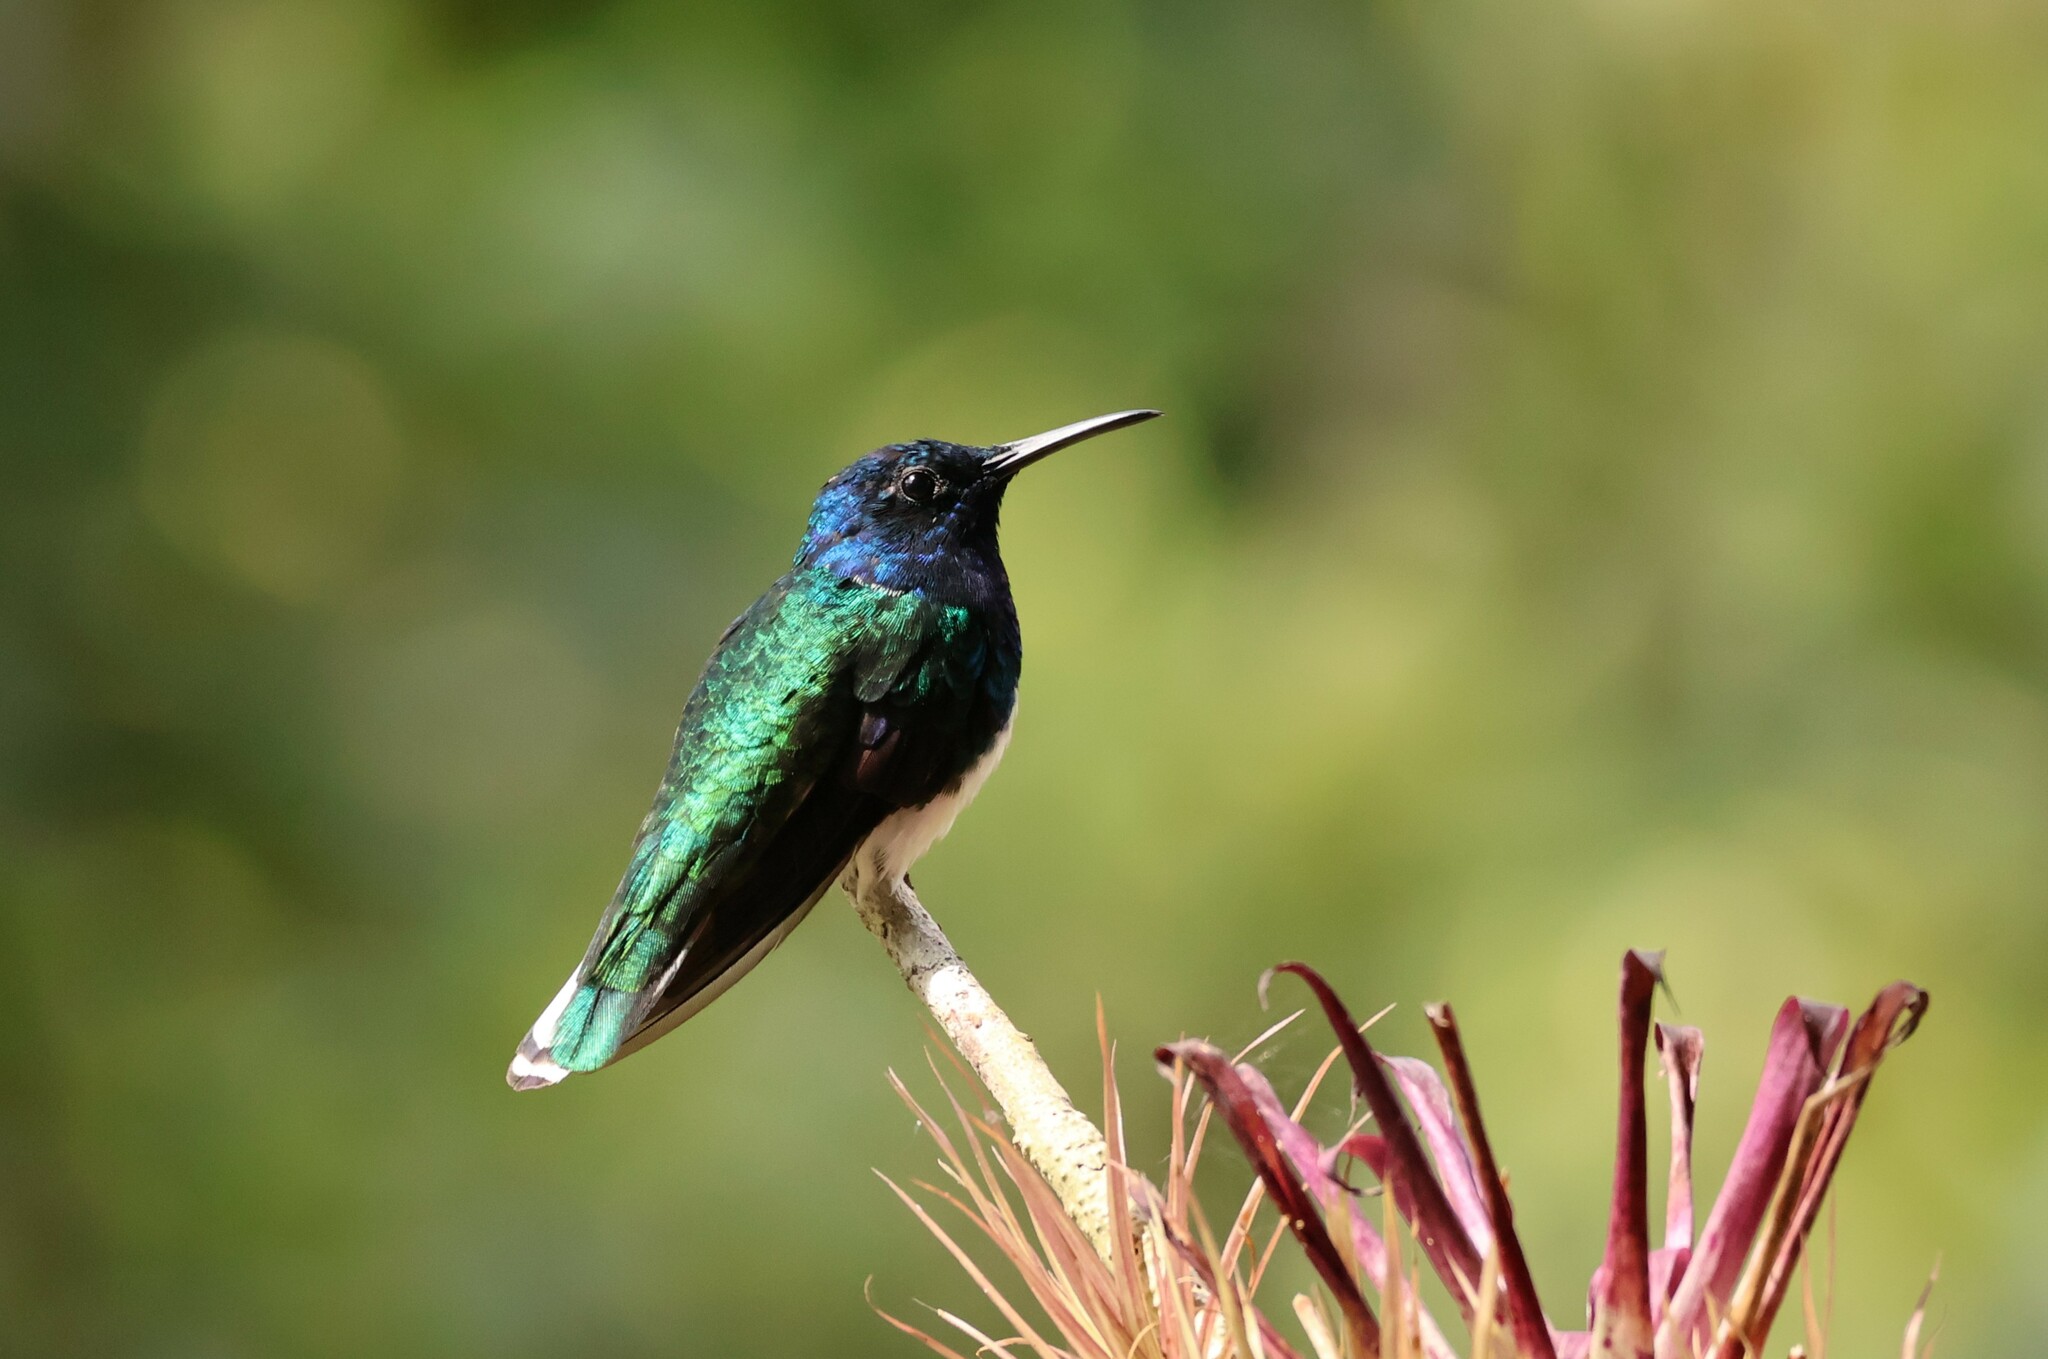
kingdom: Animalia
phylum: Chordata
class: Aves
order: Apodiformes
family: Trochilidae
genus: Florisuga
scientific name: Florisuga mellivora
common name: White-necked jacobin
